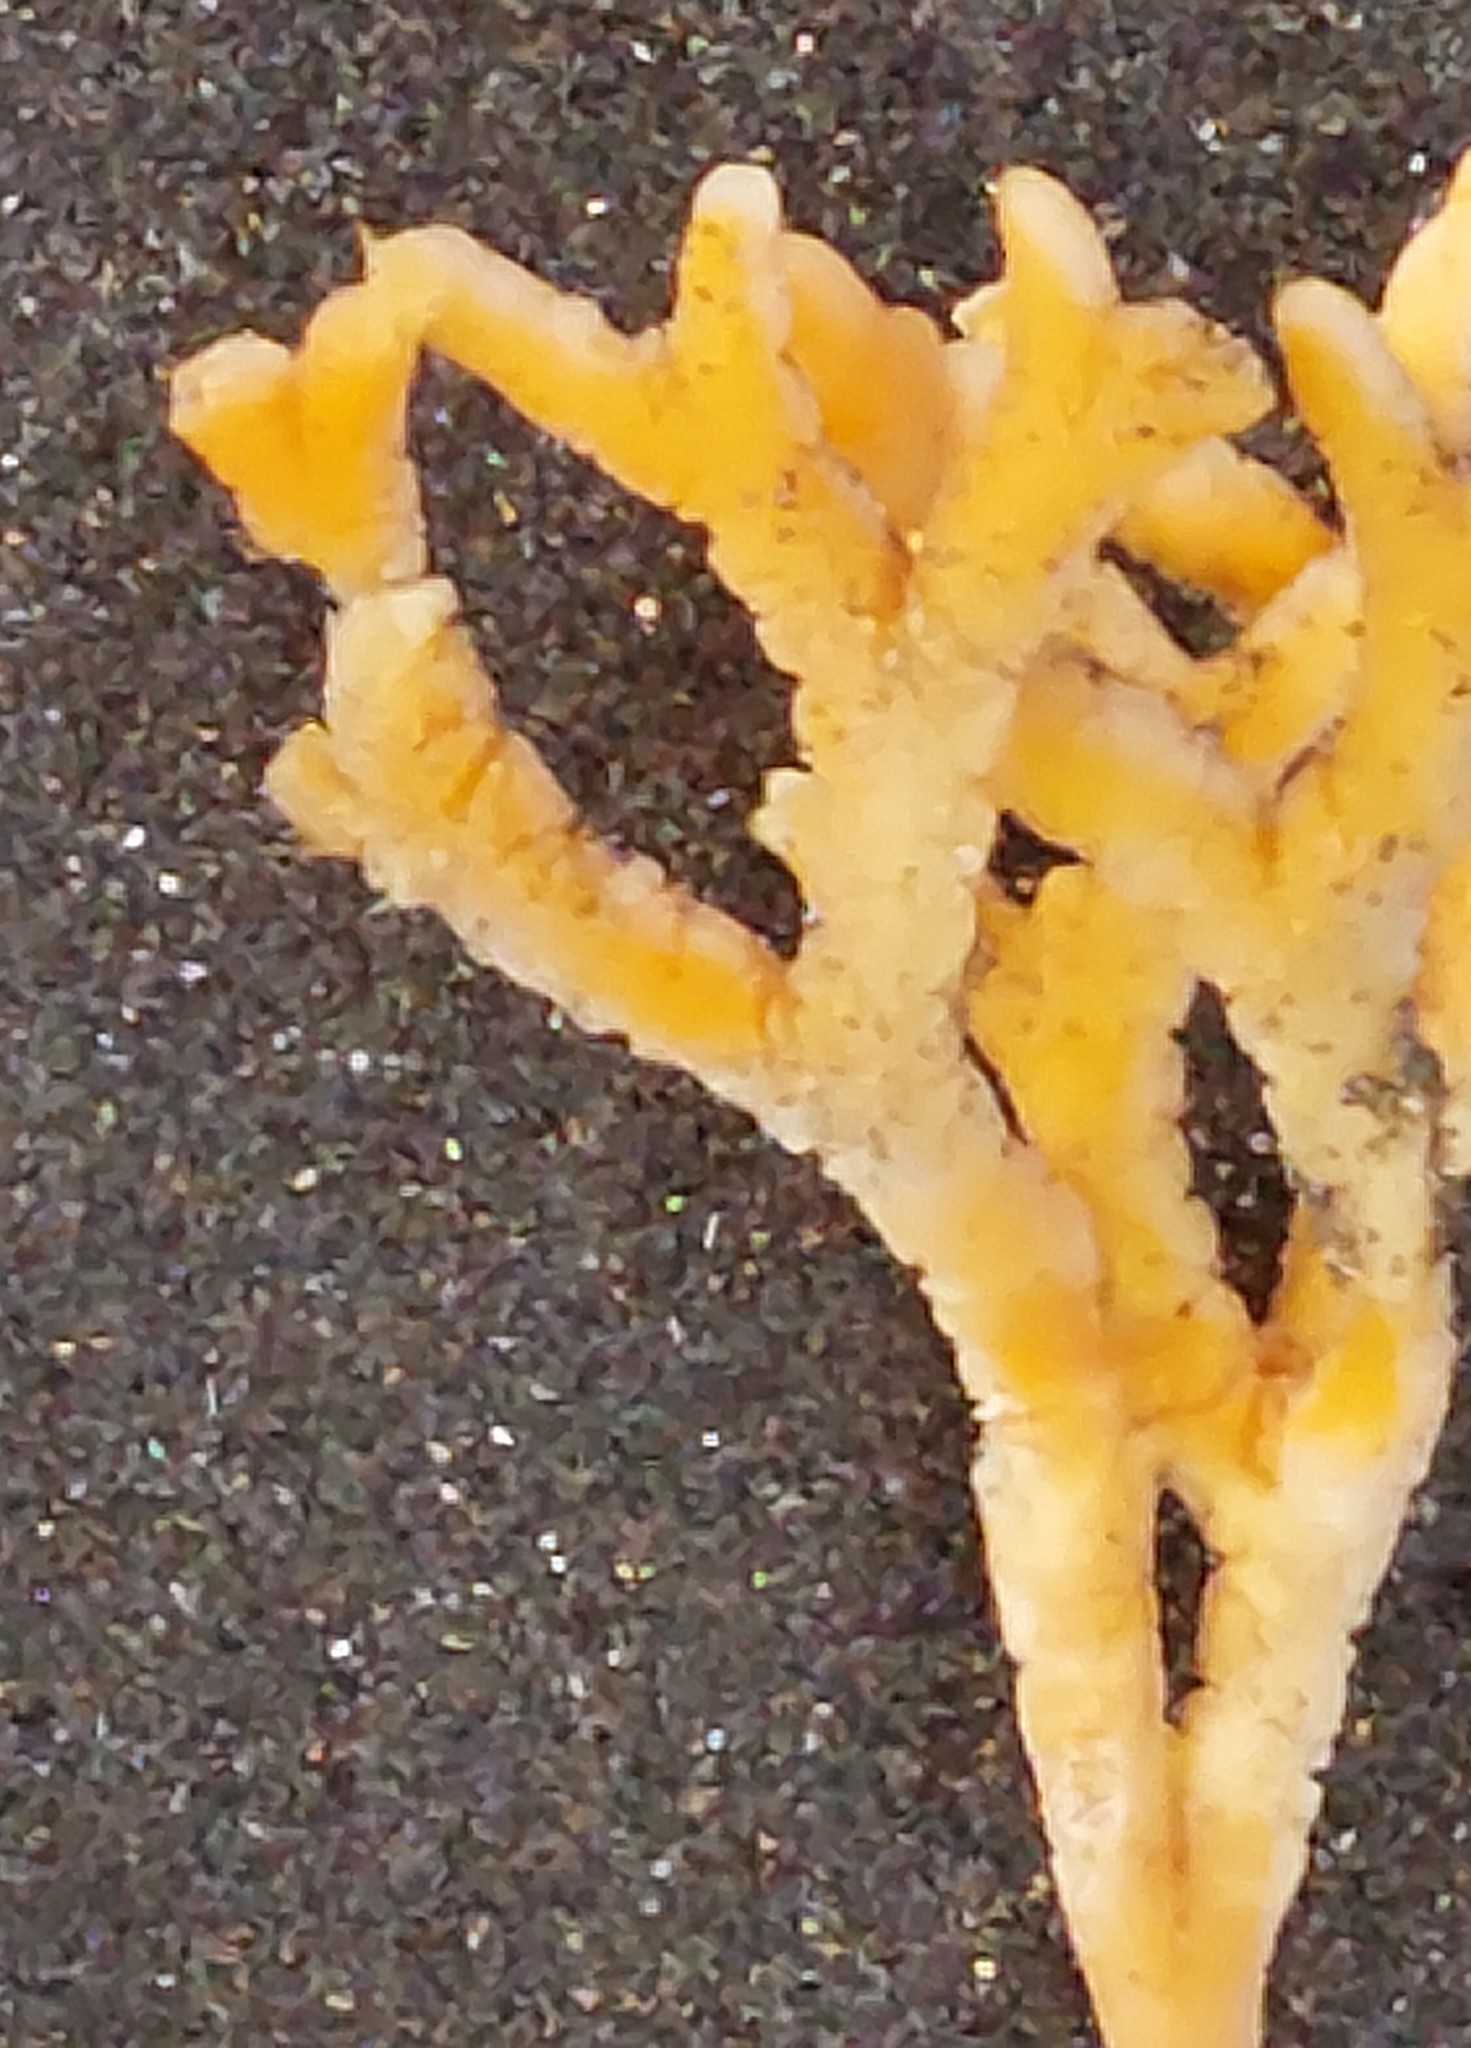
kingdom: Animalia
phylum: Porifera
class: Demospongiae
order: Axinellida
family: Axinellidae
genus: Pararhaphoxya
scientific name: Pararhaphoxya sinclairi
